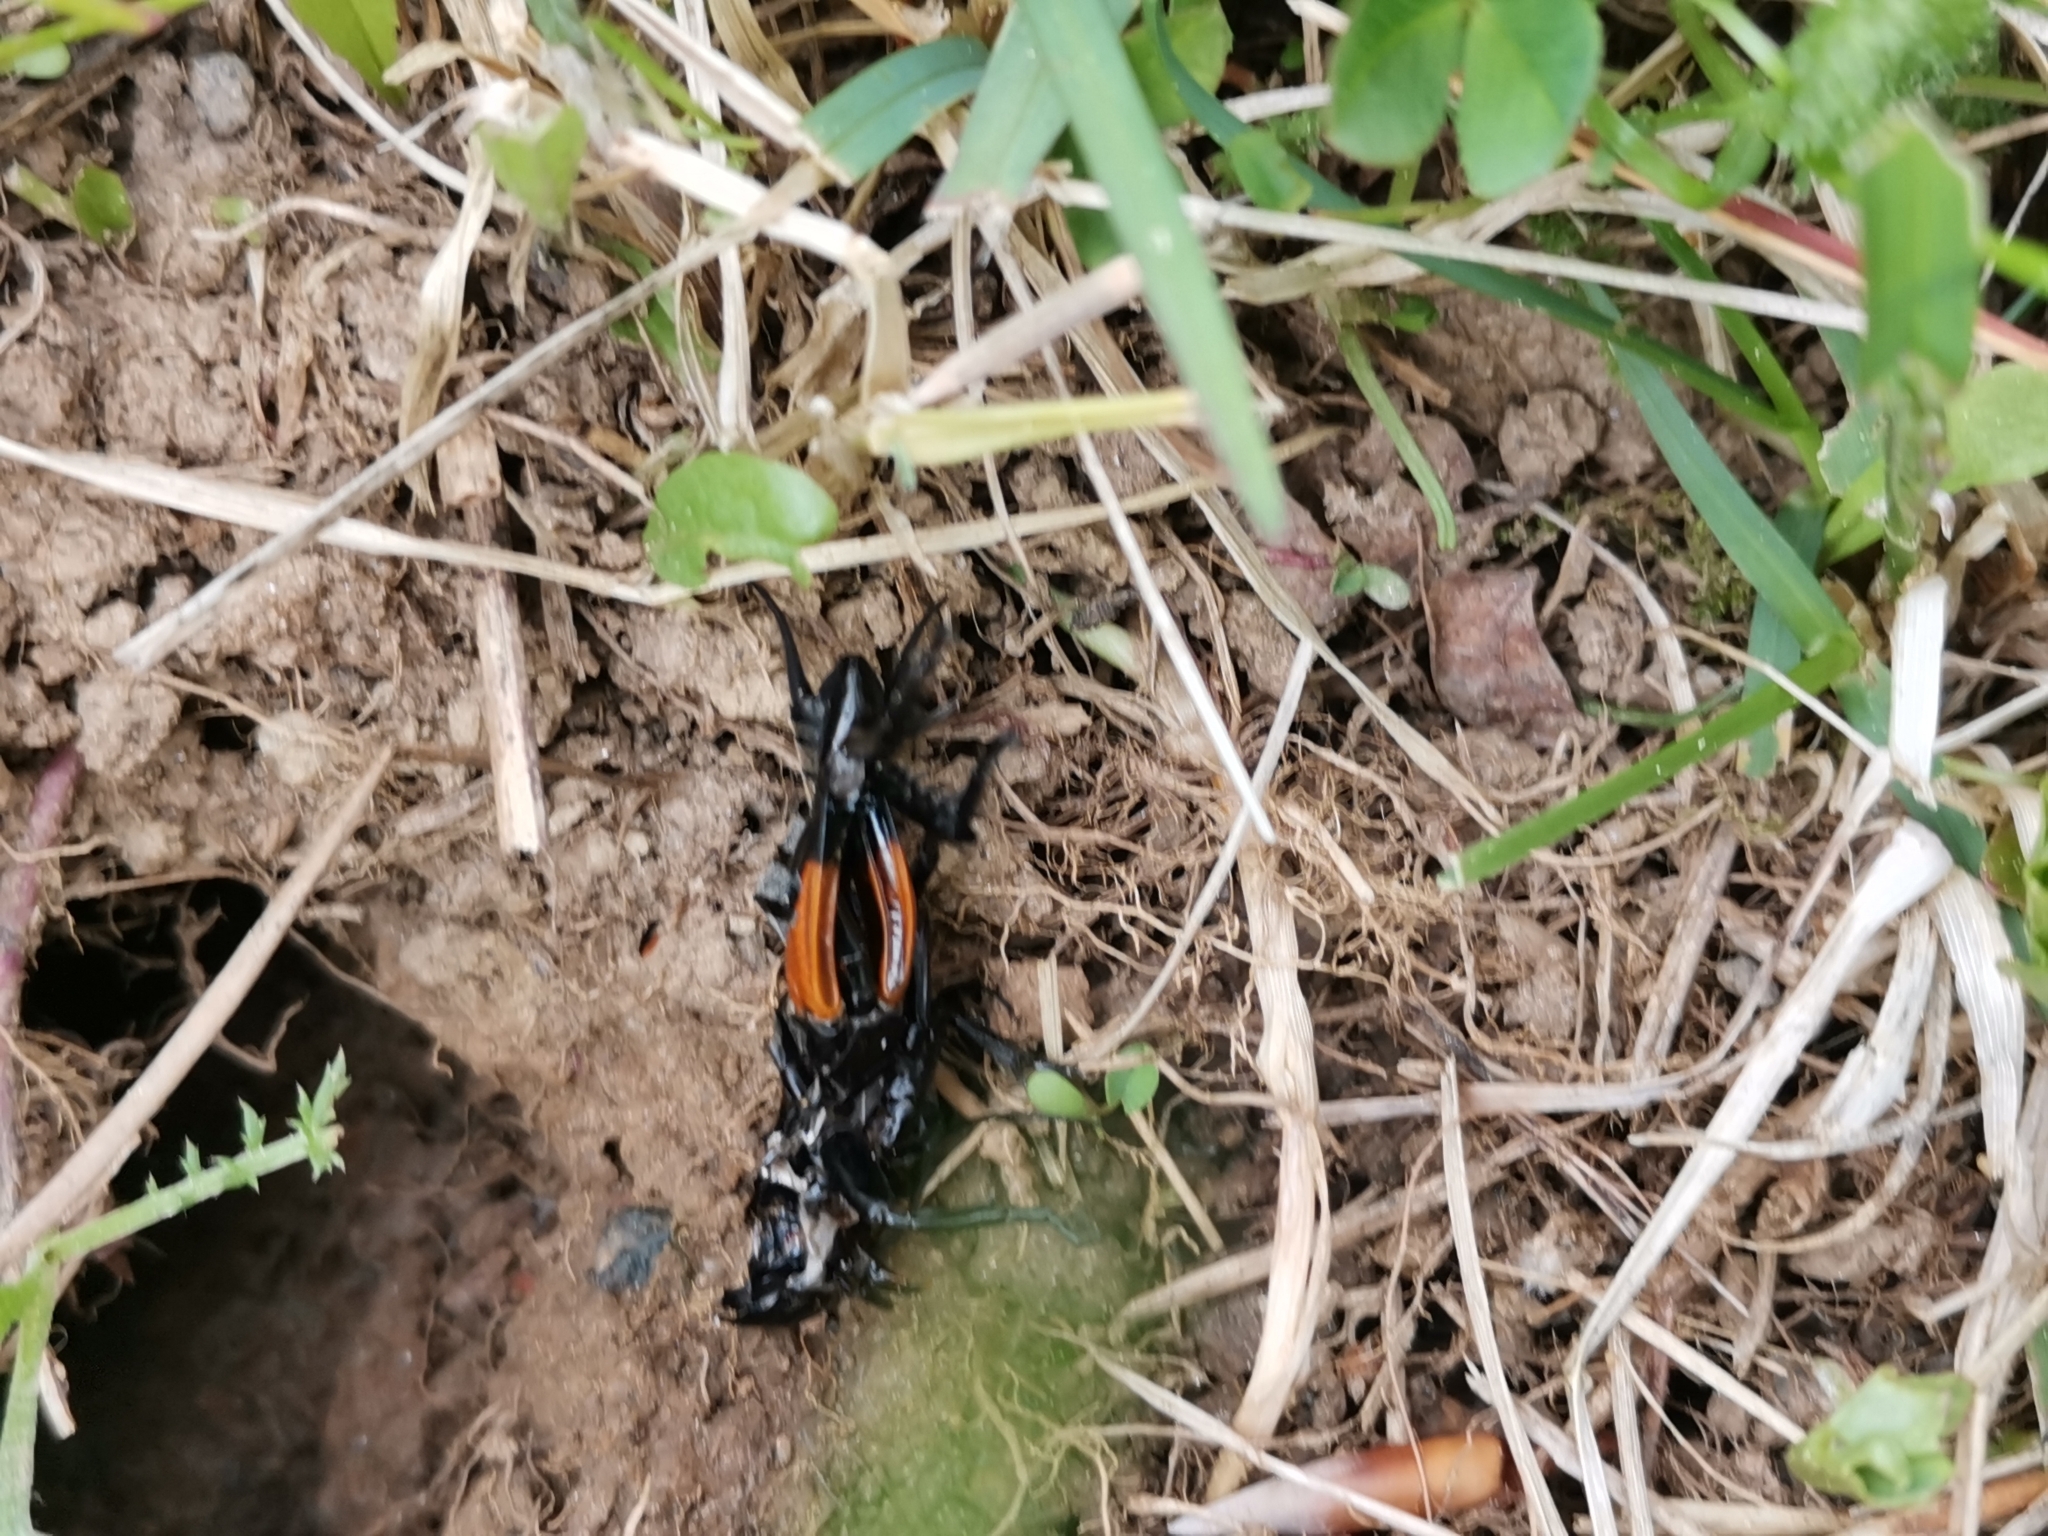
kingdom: Animalia
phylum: Arthropoda
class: Insecta
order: Orthoptera
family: Gryllidae
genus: Gryllus
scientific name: Gryllus campestris
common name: Field cricket
